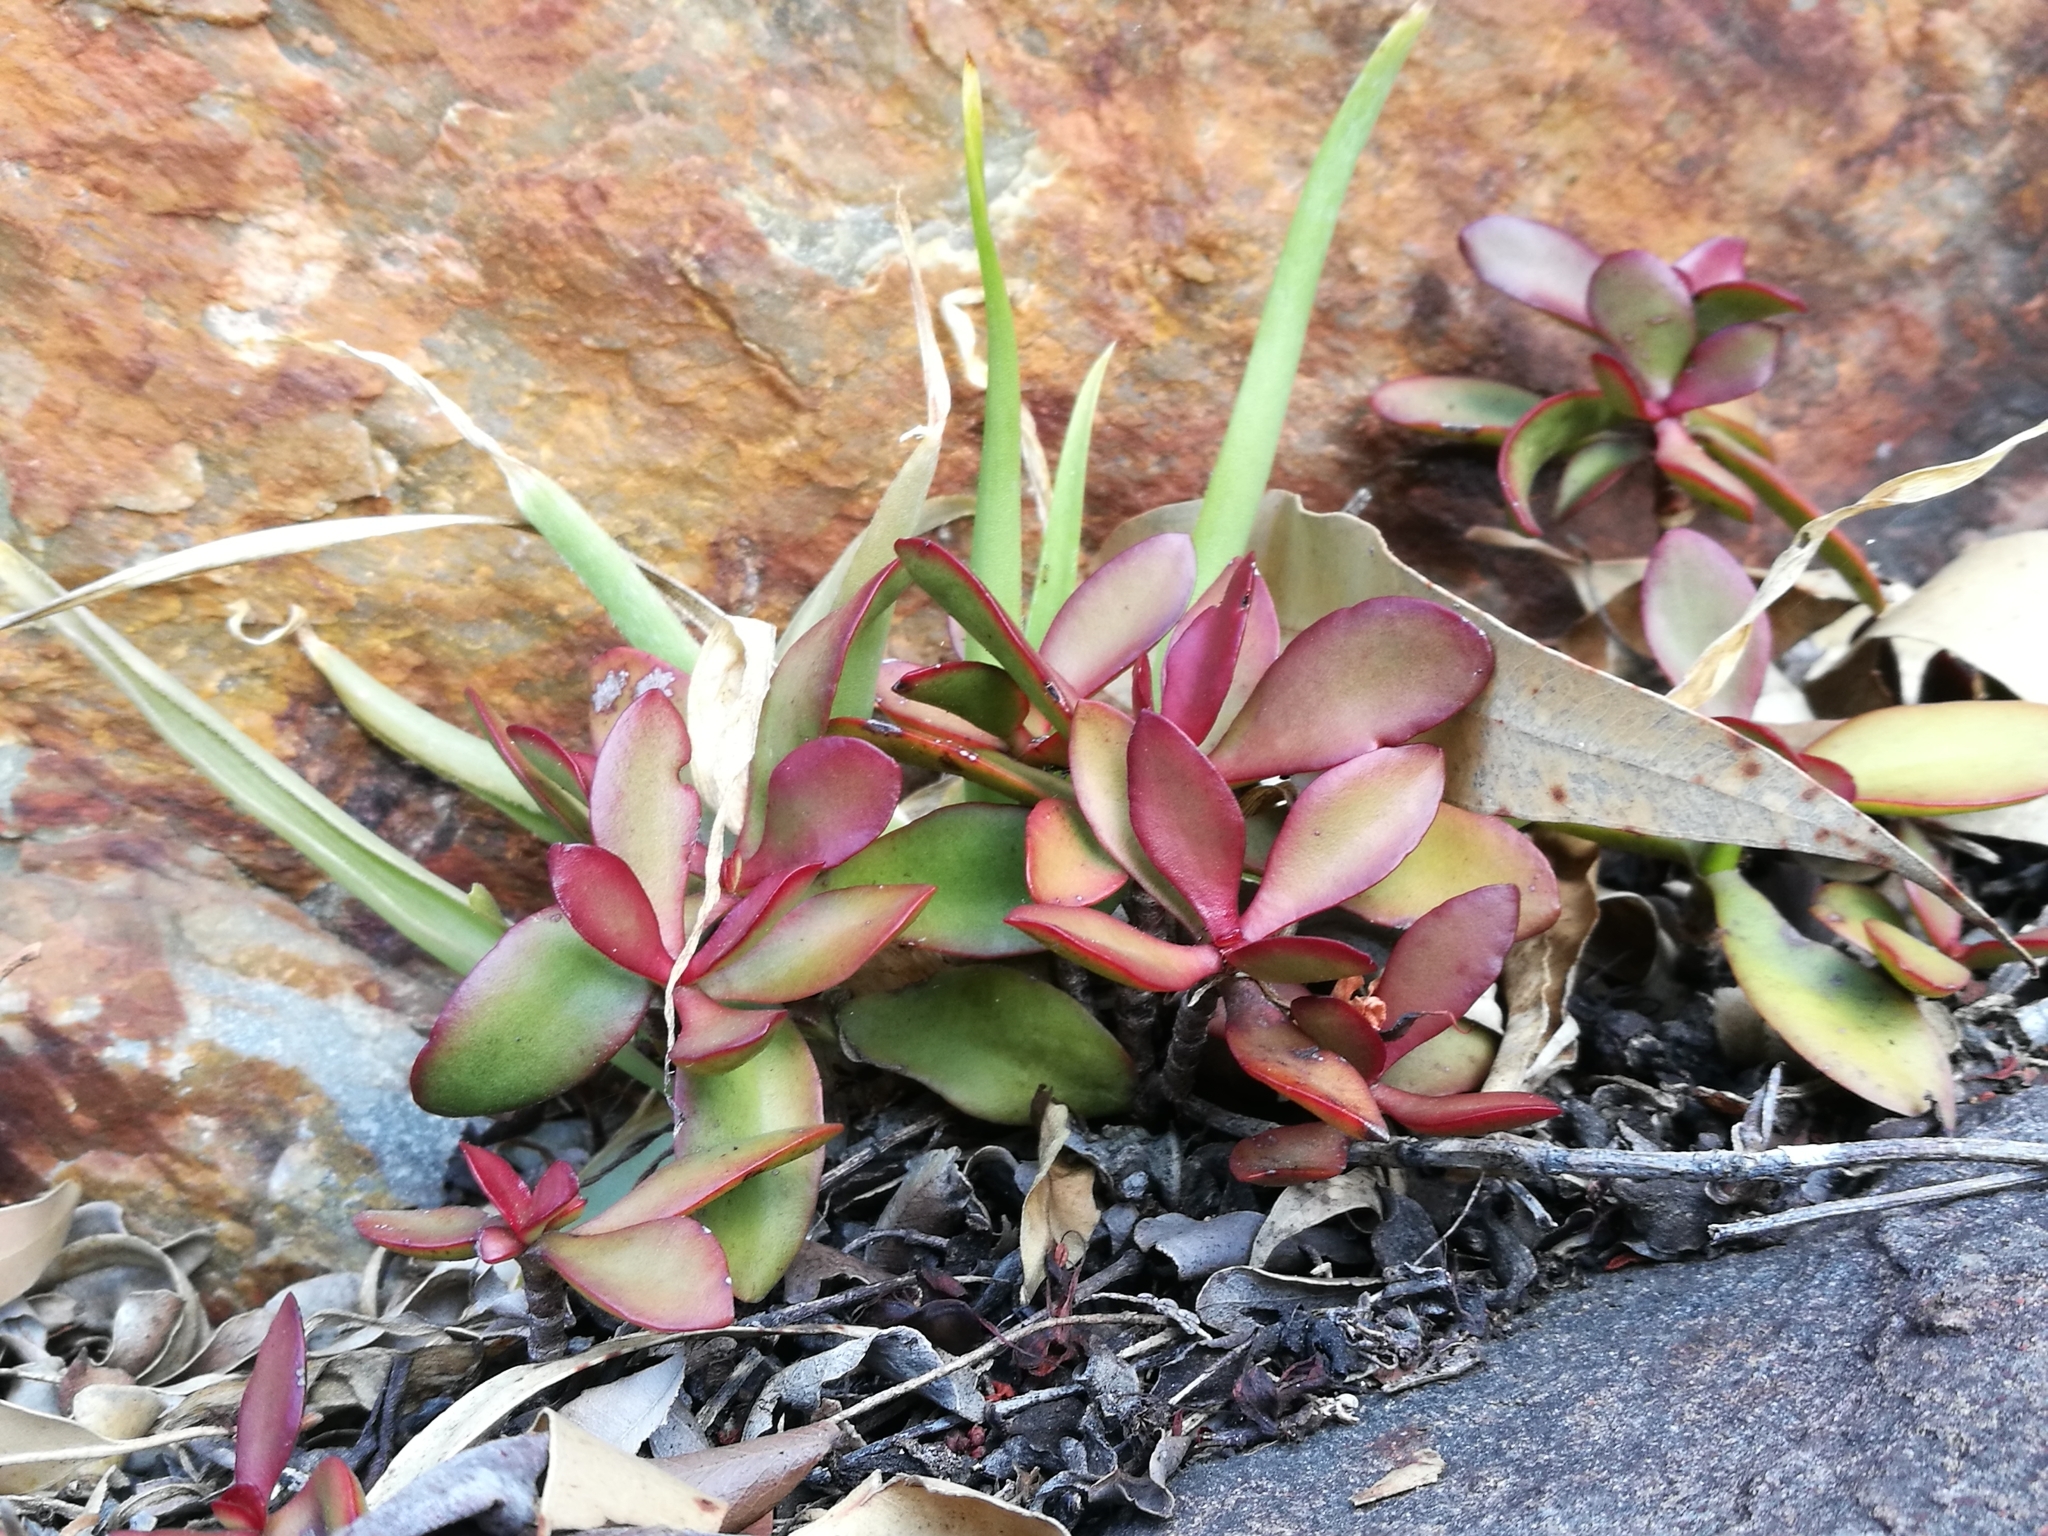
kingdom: Plantae
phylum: Tracheophyta
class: Magnoliopsida
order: Saxifragales
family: Crassulaceae
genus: Crassula
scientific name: Crassula cultrata
